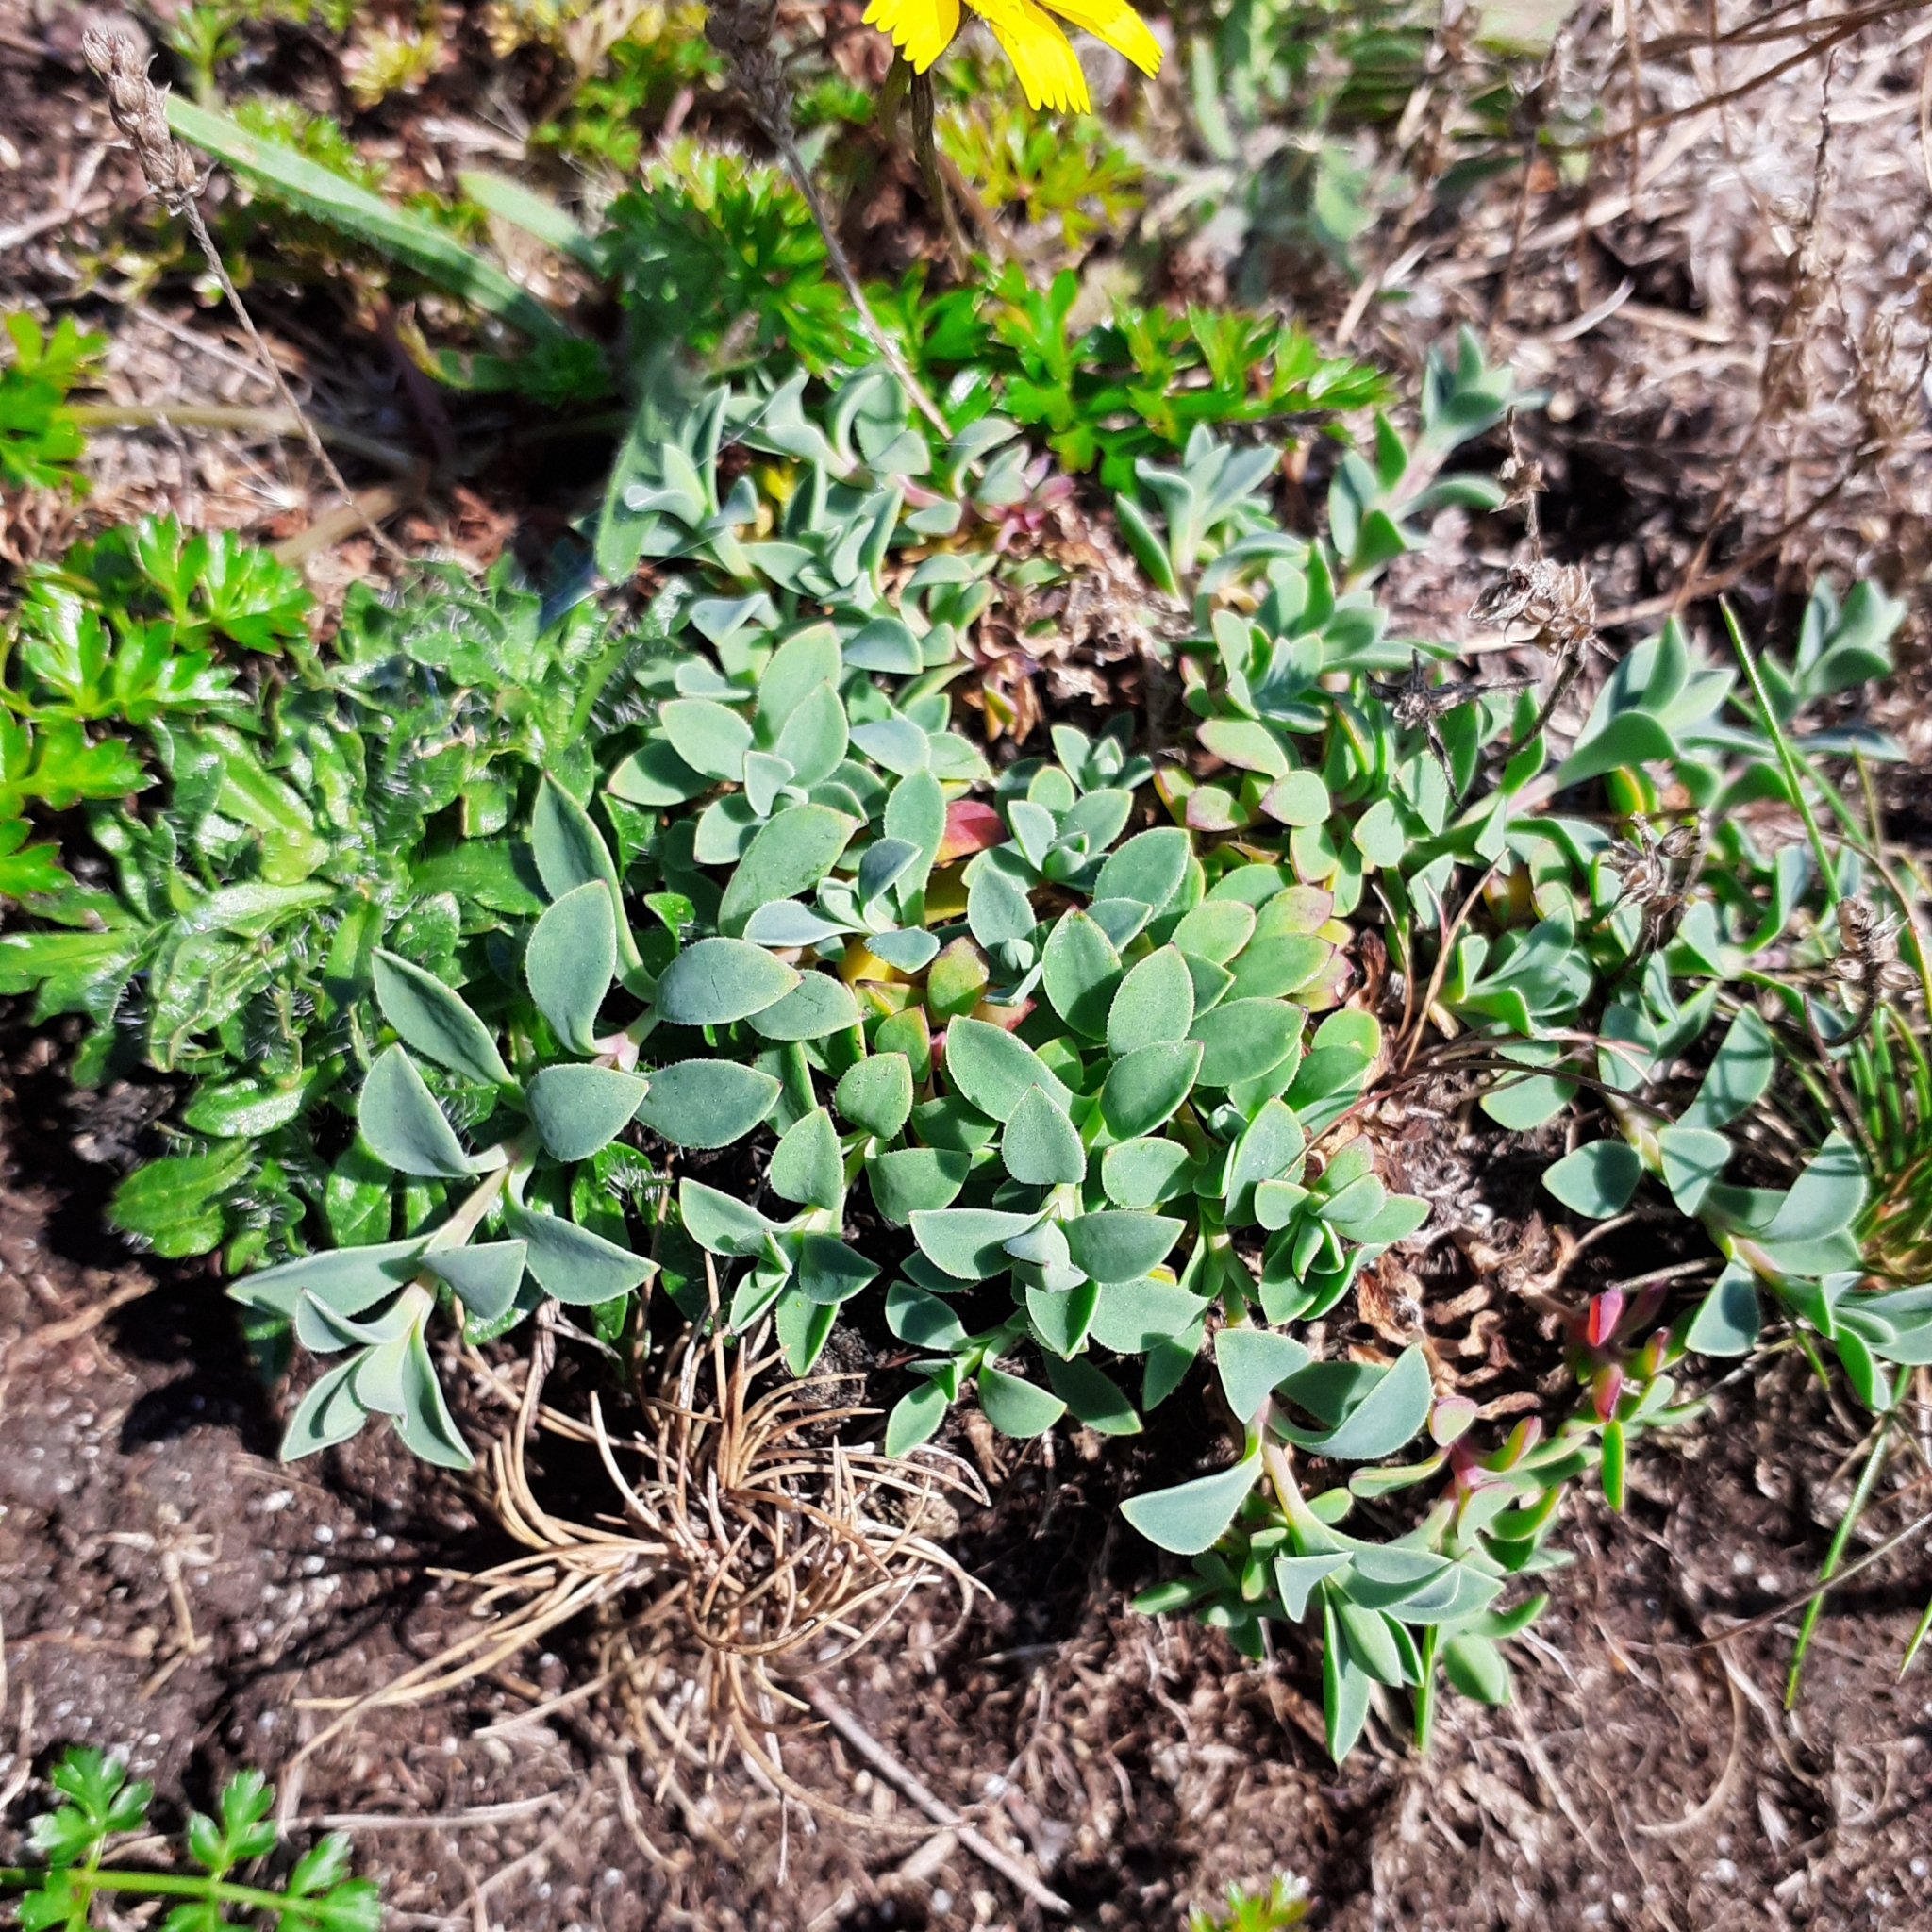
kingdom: Plantae
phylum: Tracheophyta
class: Magnoliopsida
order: Caryophyllales
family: Caryophyllaceae
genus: Silene
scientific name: Silene uniflora
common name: Sea campion
